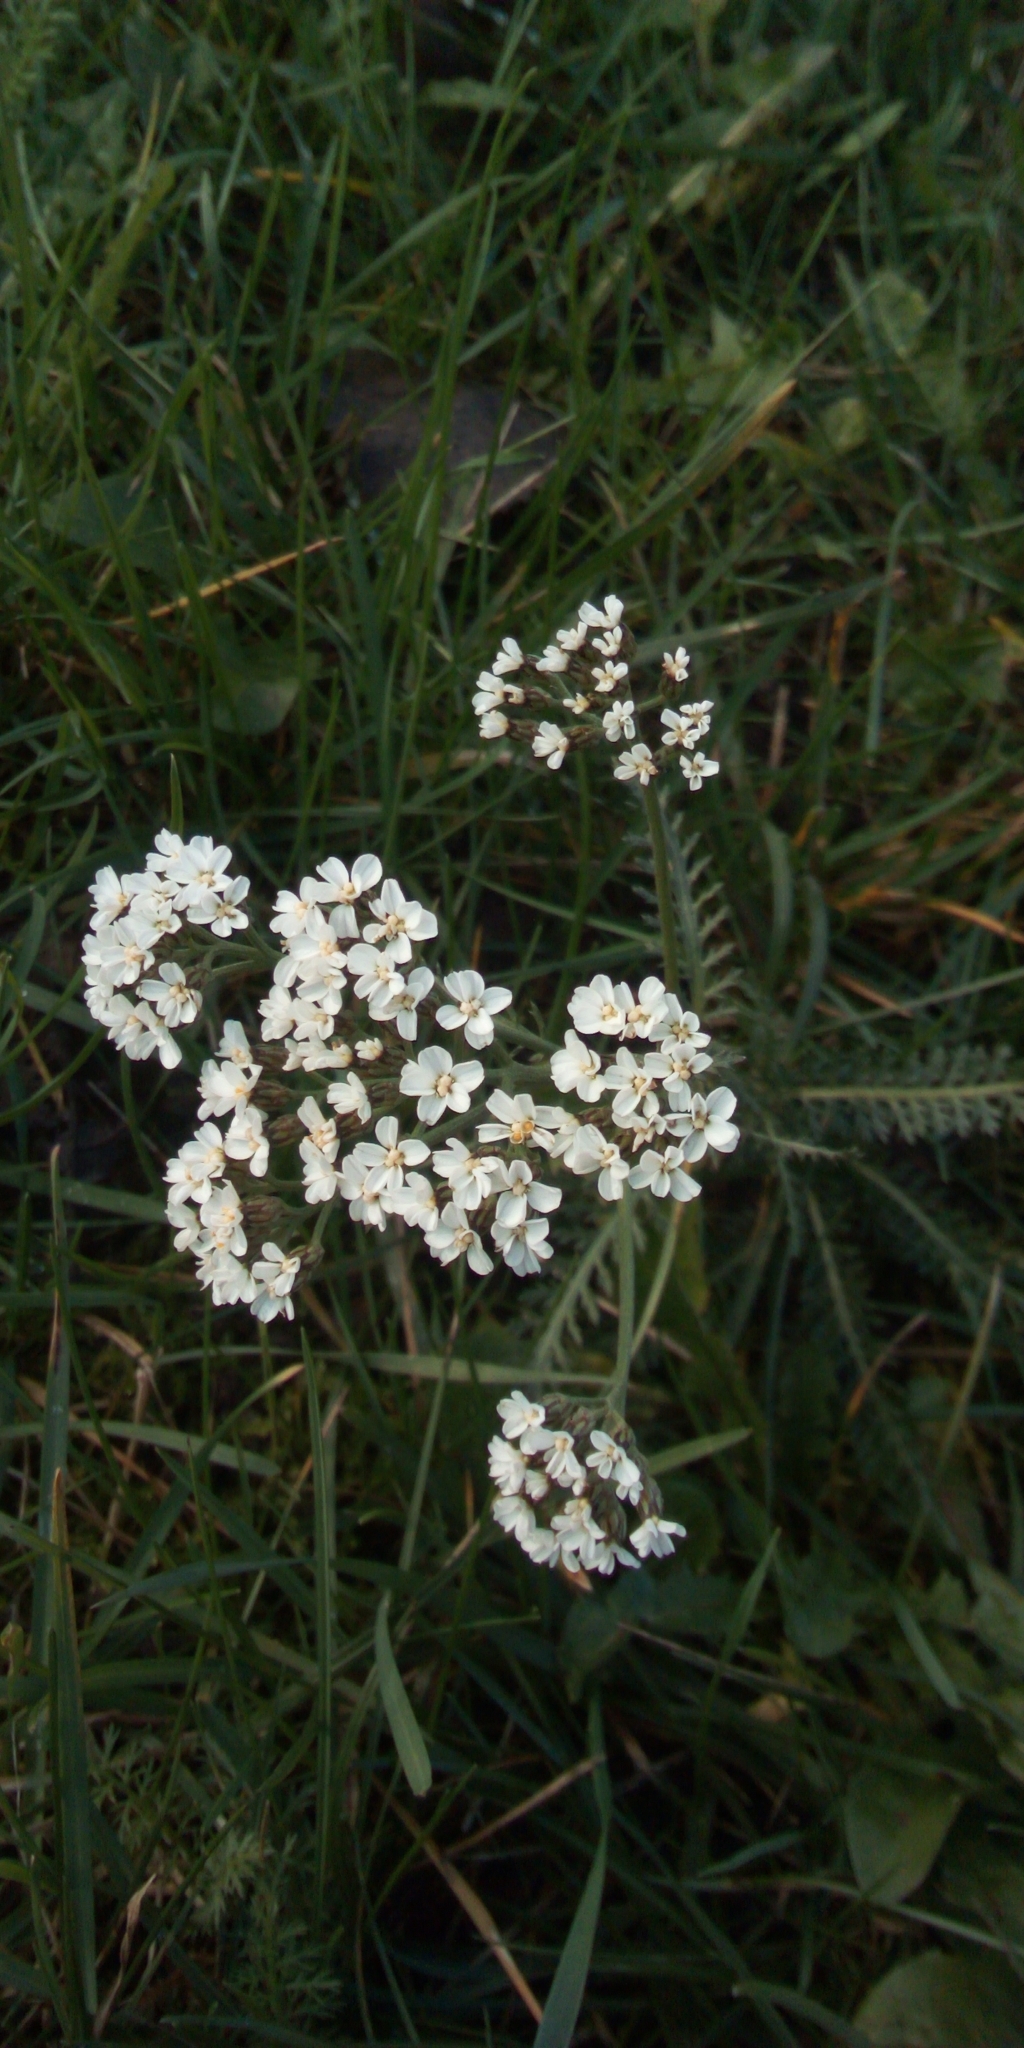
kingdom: Plantae
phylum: Tracheophyta
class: Magnoliopsida
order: Asterales
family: Asteraceae
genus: Achillea
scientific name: Achillea millefolium
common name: Yarrow
